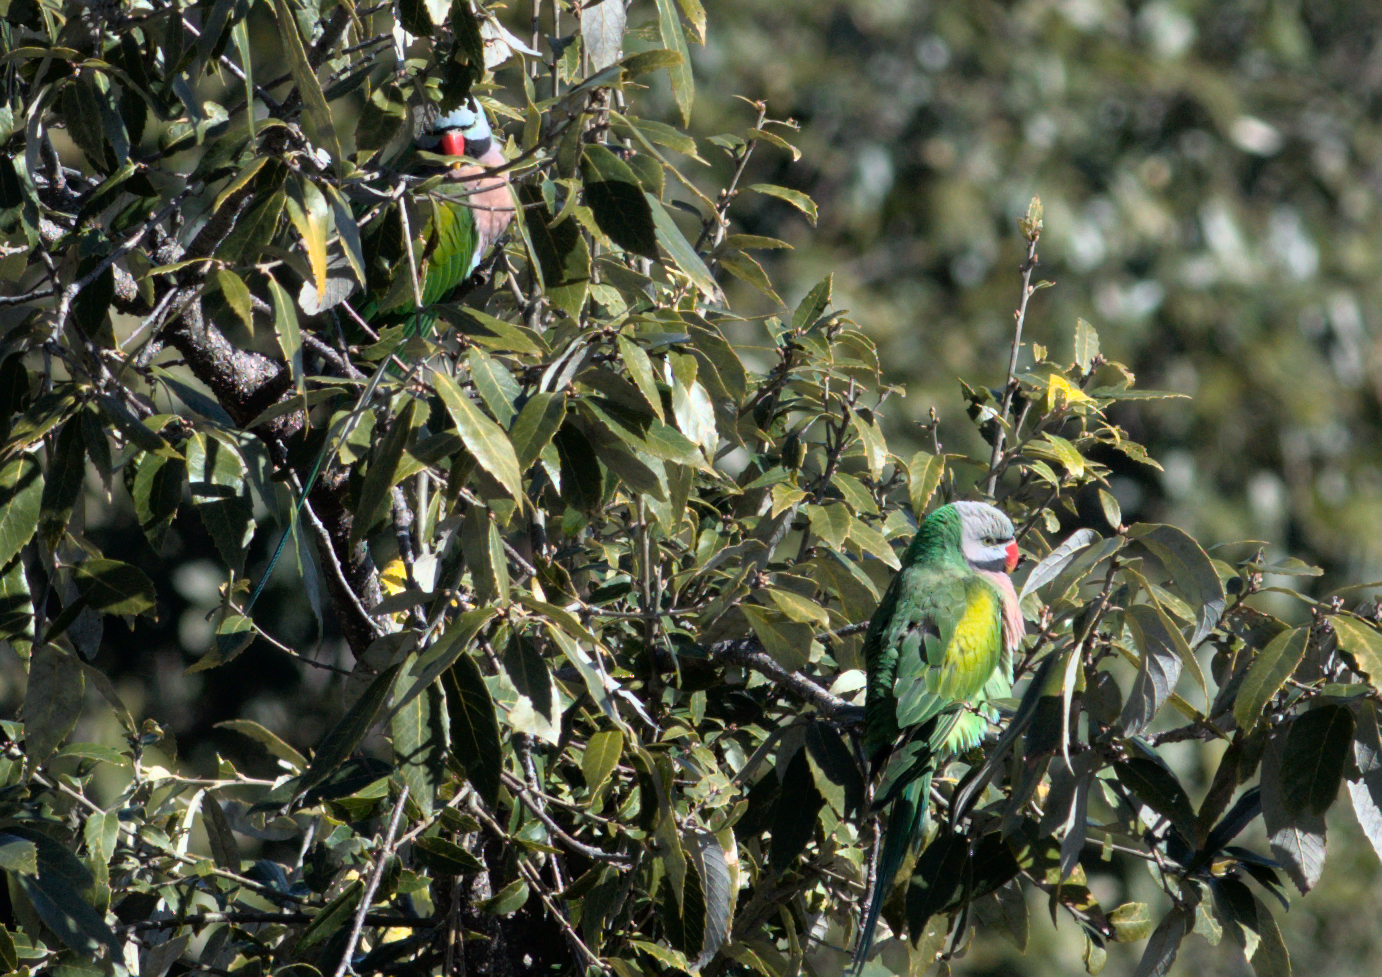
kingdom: Animalia
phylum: Chordata
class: Aves
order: Psittaciformes
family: Psittacidae
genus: Psittacula
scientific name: Psittacula alexandri
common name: Red-breasted parakeet
